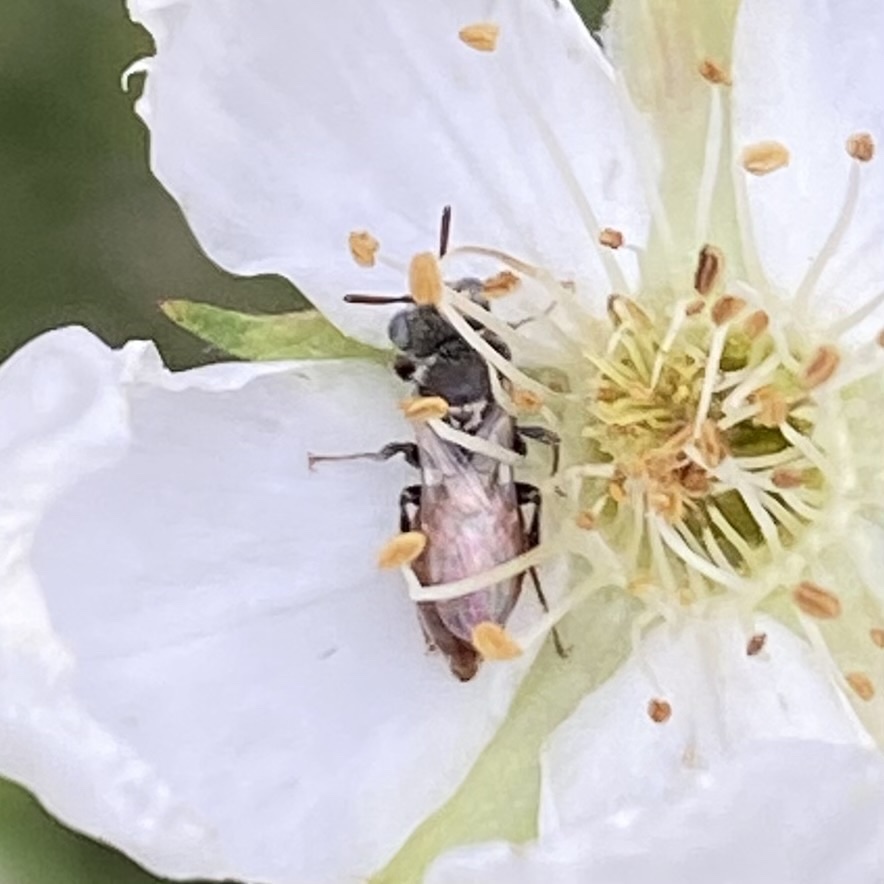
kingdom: Animalia
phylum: Arthropoda
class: Insecta
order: Hymenoptera
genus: Macroteropsis
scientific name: Macroteropsis
